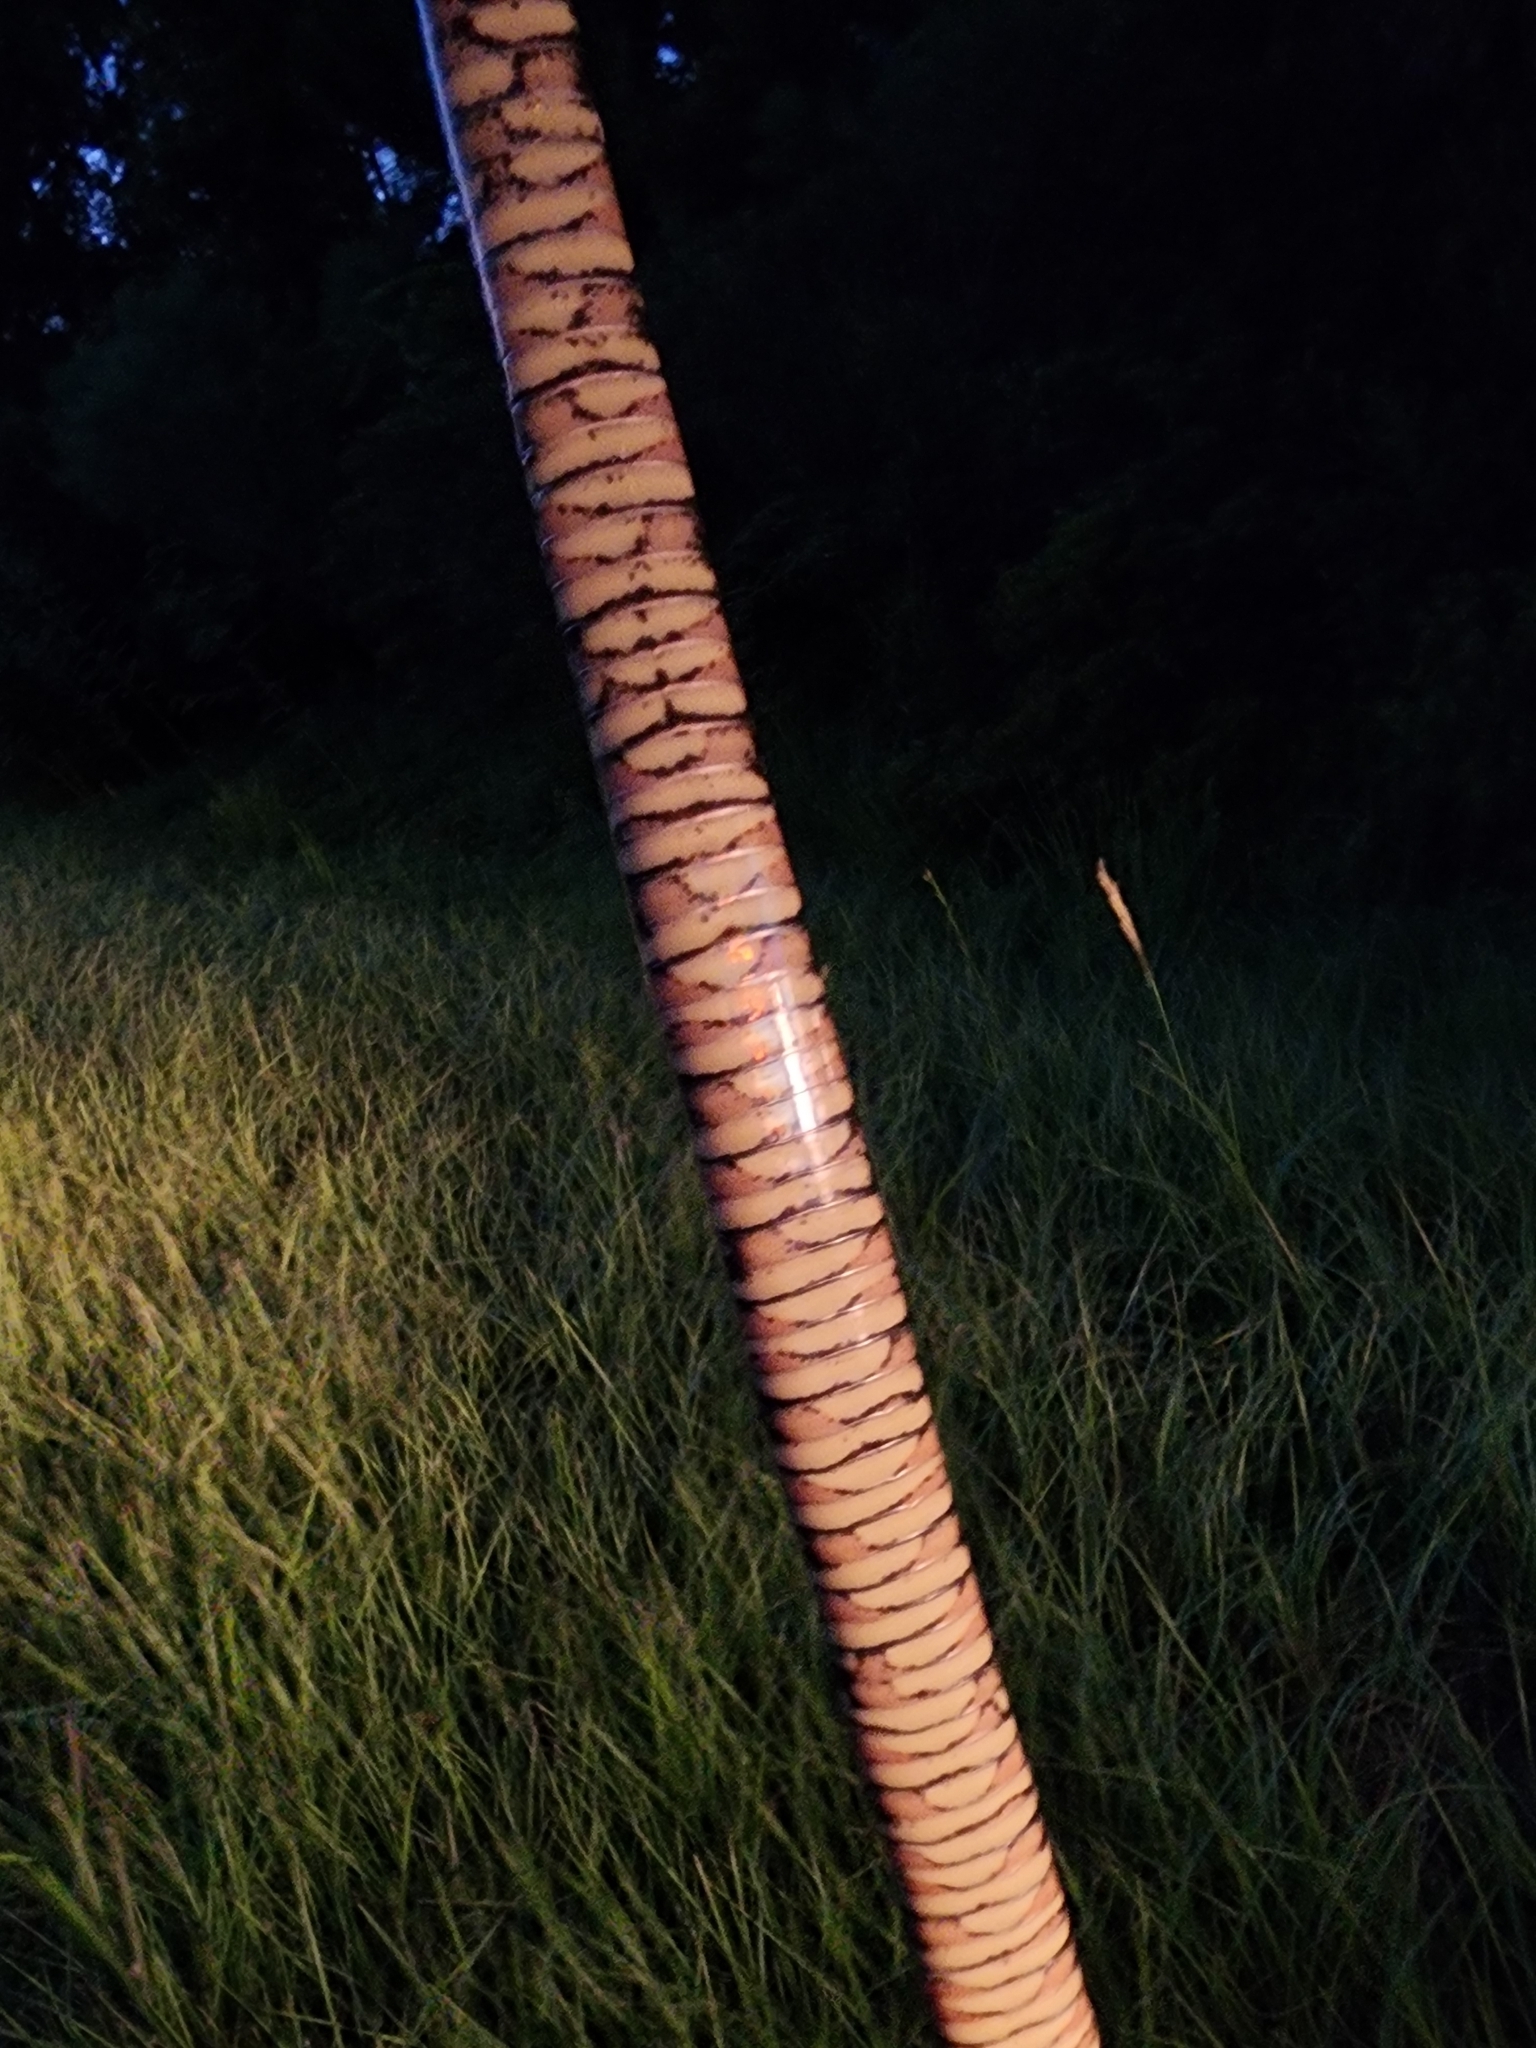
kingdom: Animalia
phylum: Chordata
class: Squamata
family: Colubridae
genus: Nerodia
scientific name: Nerodia fasciata
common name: Southern water snake
